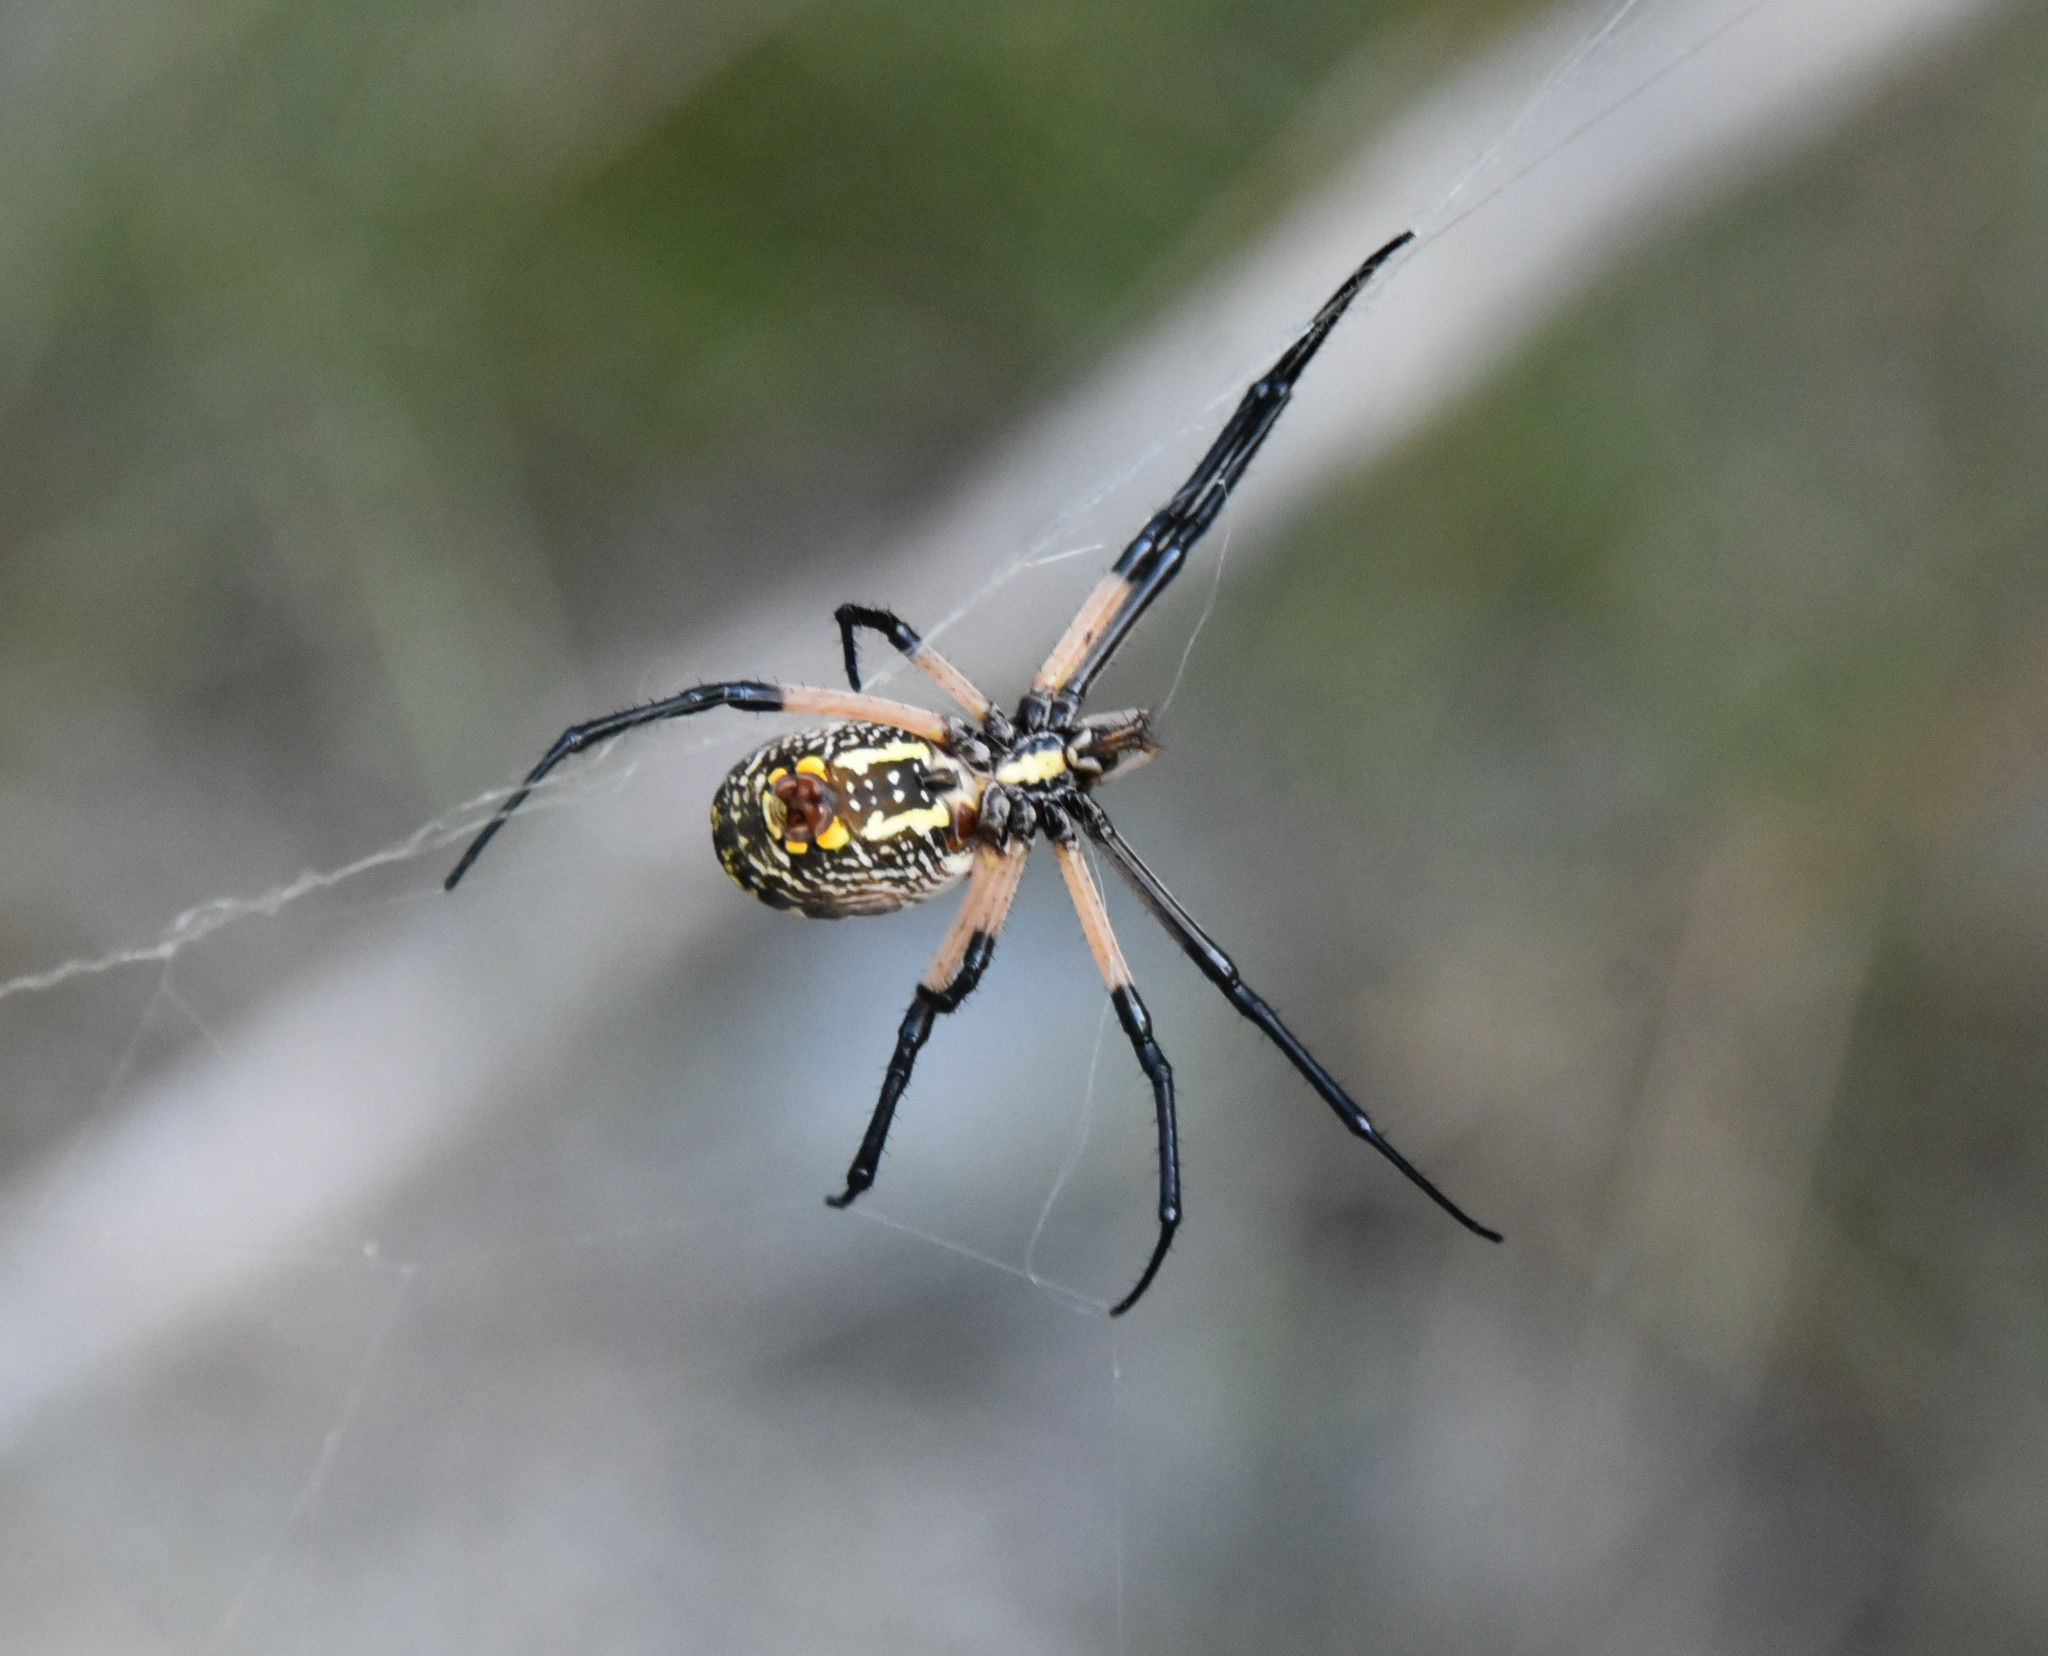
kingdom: Animalia
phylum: Arthropoda
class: Arachnida
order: Araneae
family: Araneidae
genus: Argiope
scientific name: Argiope aurantia
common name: Orb weavers
